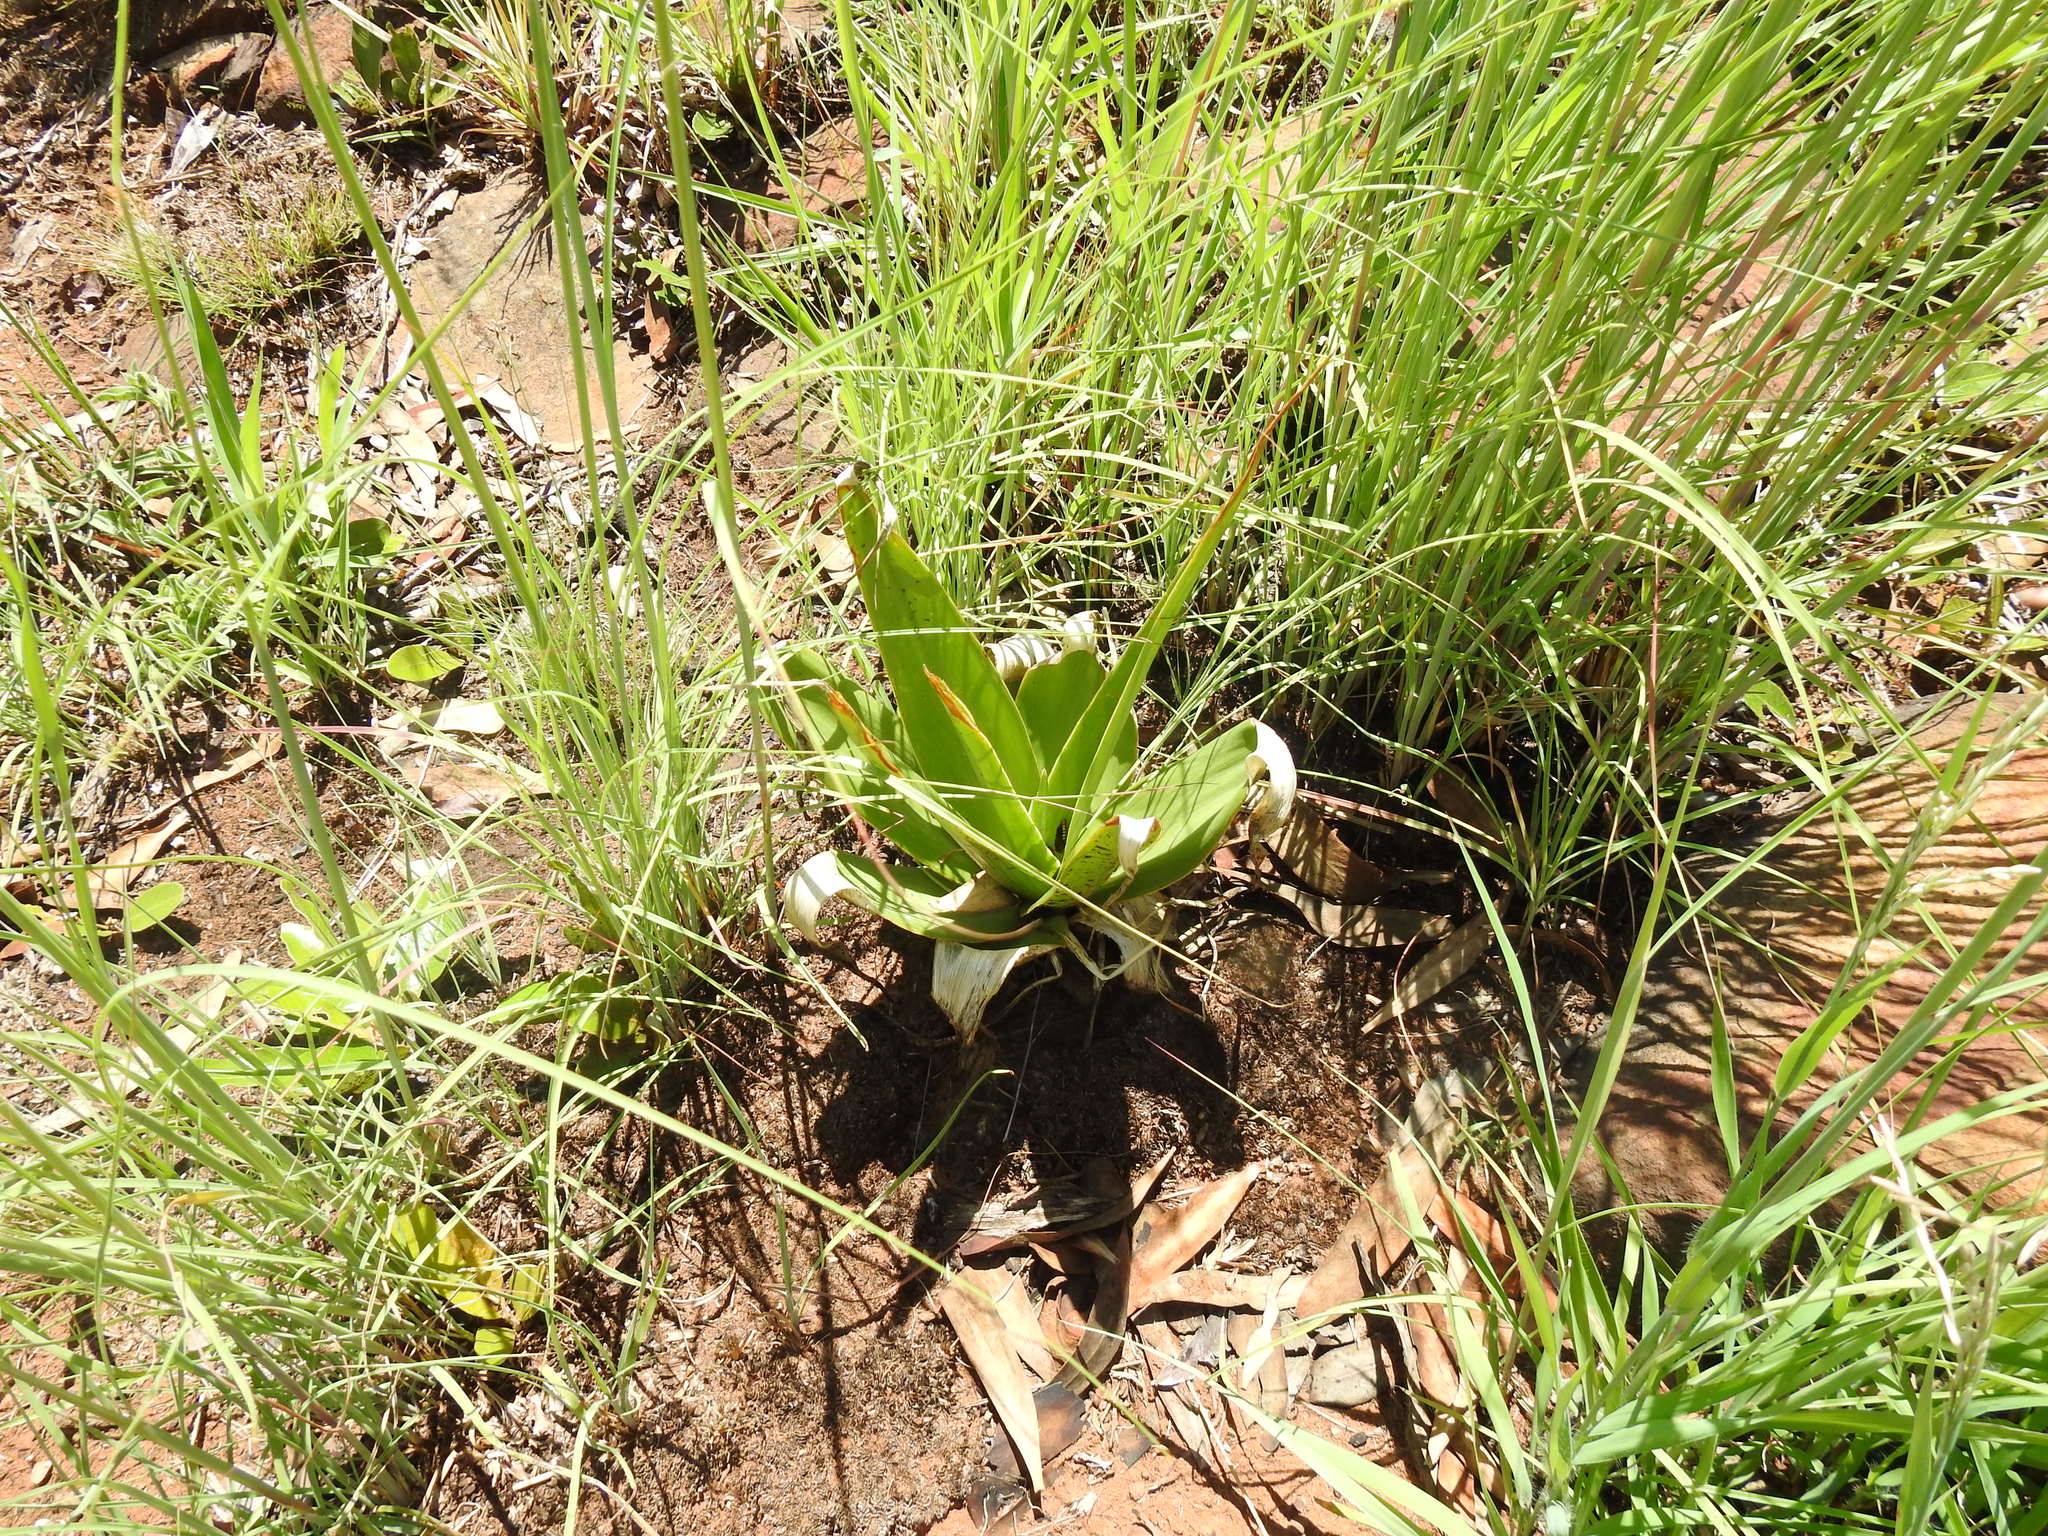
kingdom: Plantae
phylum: Tracheophyta
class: Liliopsida
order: Asparagales
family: Asparagaceae
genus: Schizocarphus
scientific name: Schizocarphus nervosus
